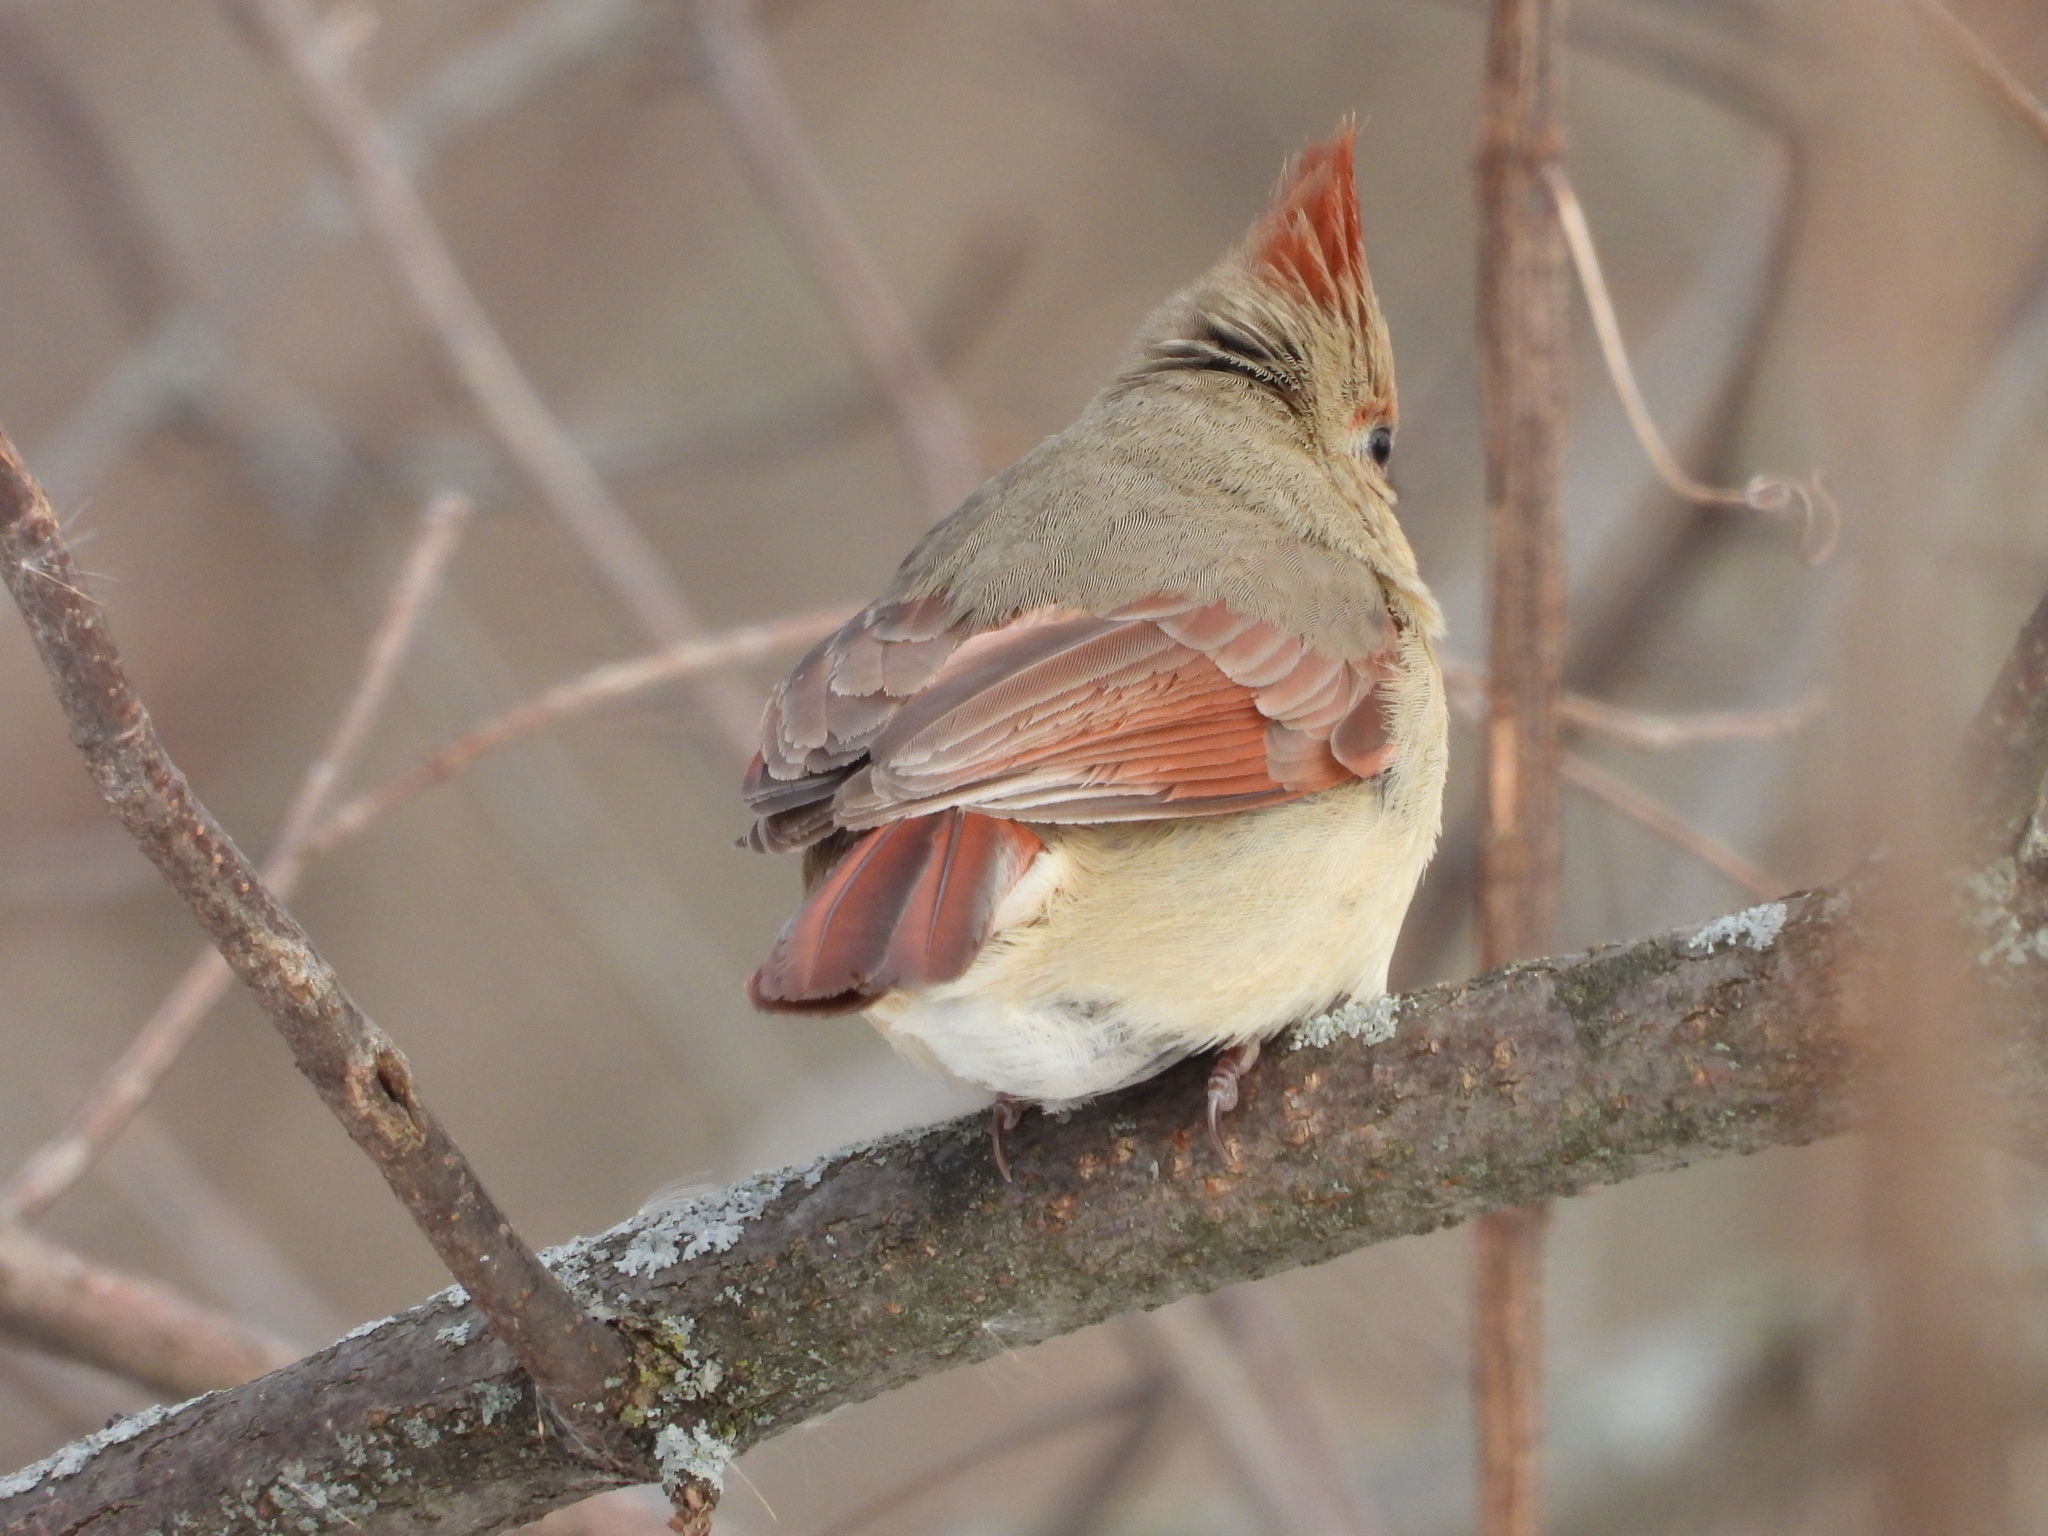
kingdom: Animalia
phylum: Chordata
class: Aves
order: Passeriformes
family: Cardinalidae
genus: Cardinalis
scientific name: Cardinalis cardinalis
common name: Northern cardinal
